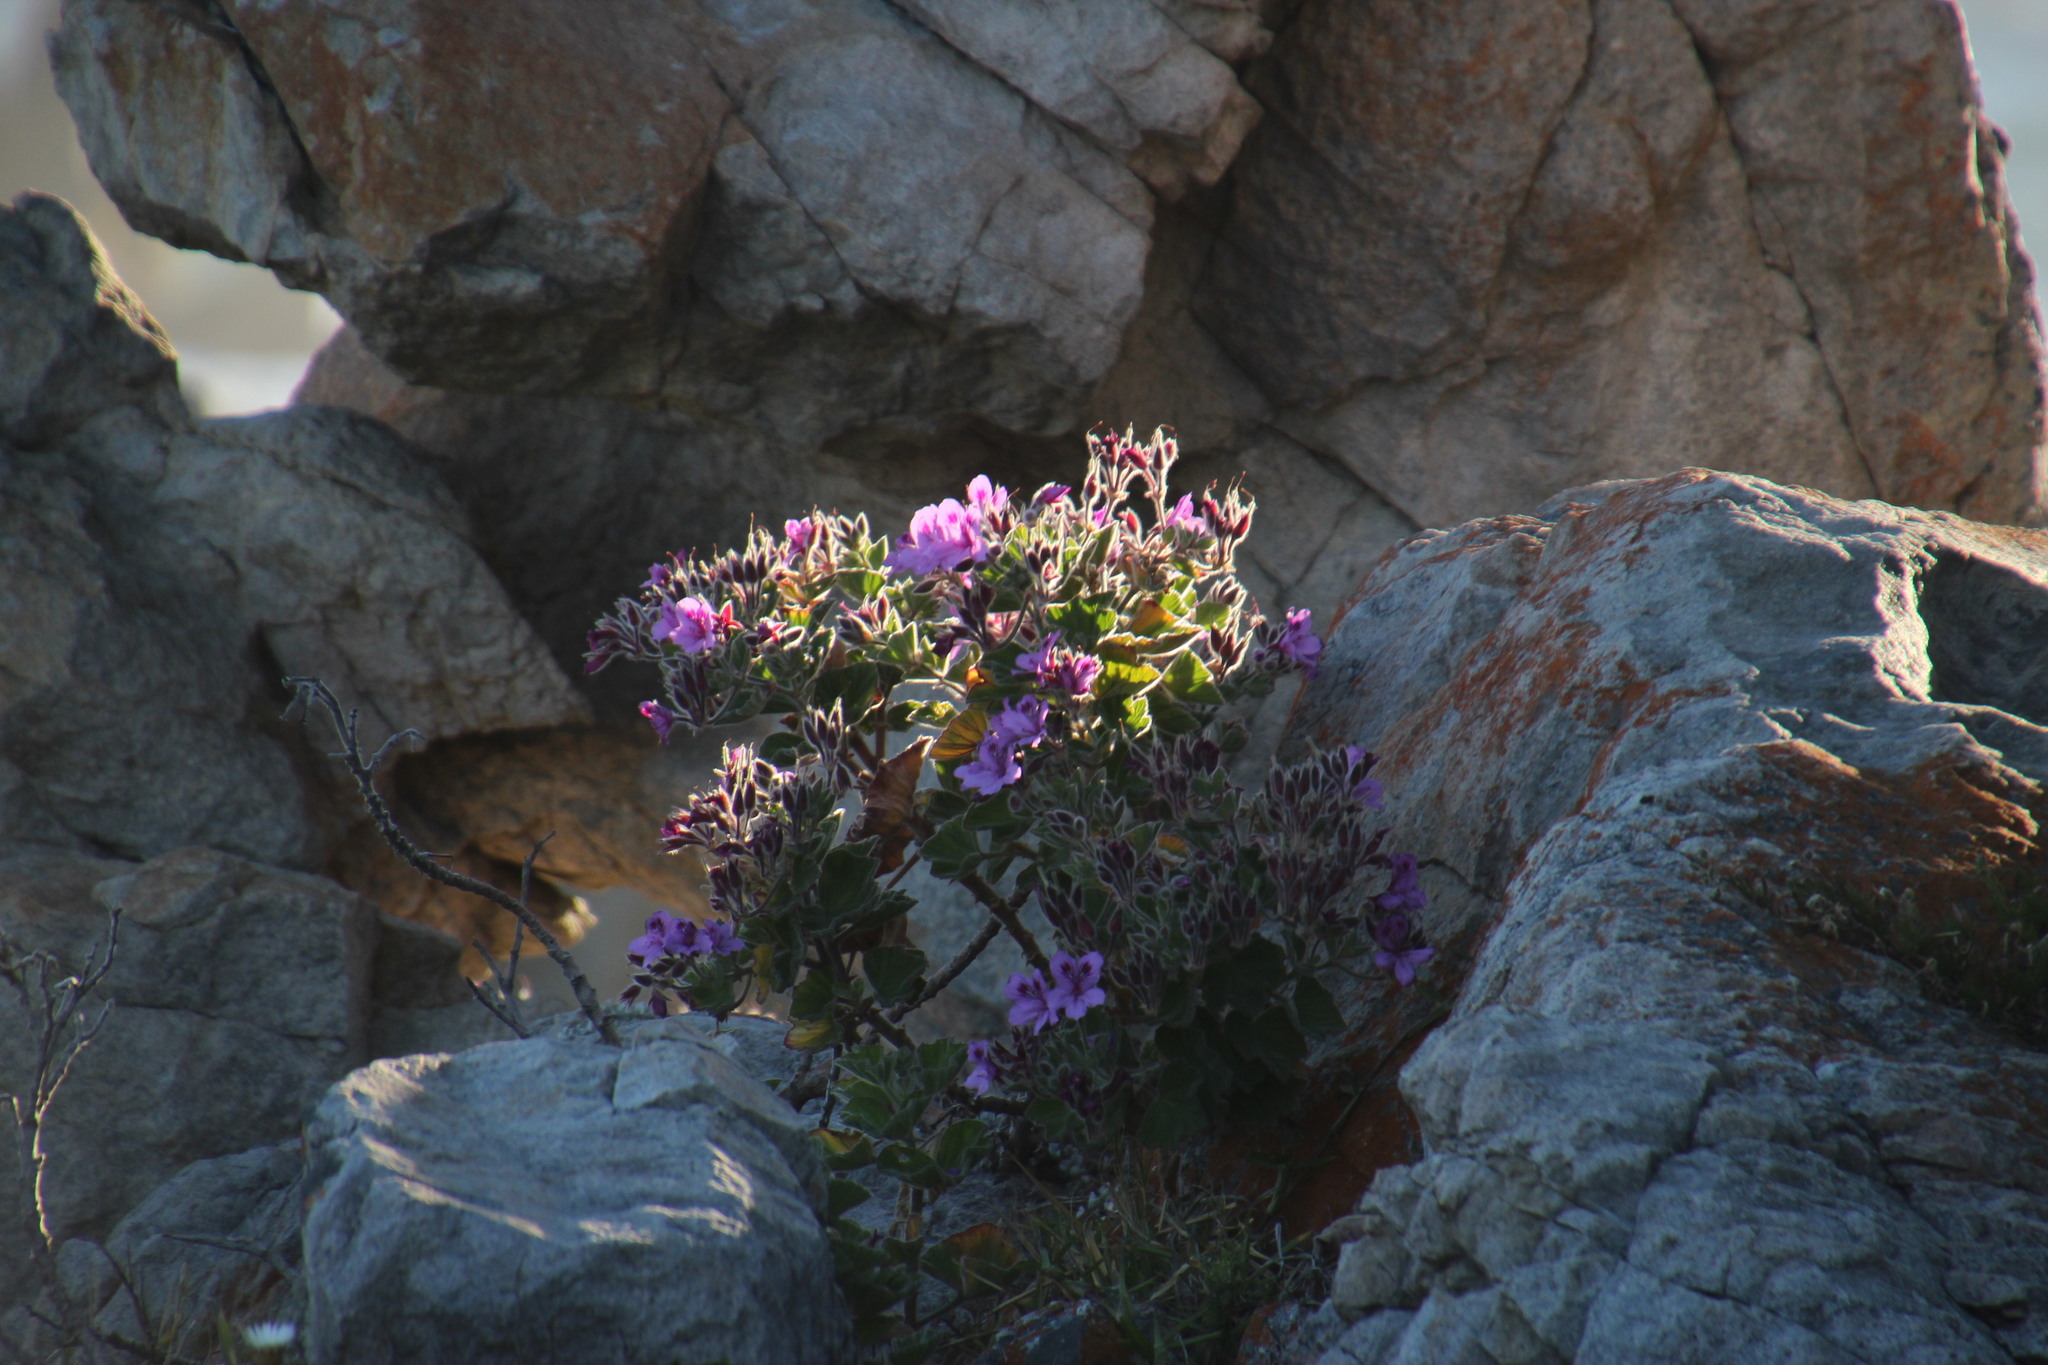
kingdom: Plantae
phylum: Tracheophyta
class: Magnoliopsida
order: Geraniales
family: Geraniaceae
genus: Pelargonium
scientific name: Pelargonium cucullatum
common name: Tree pelargonium
